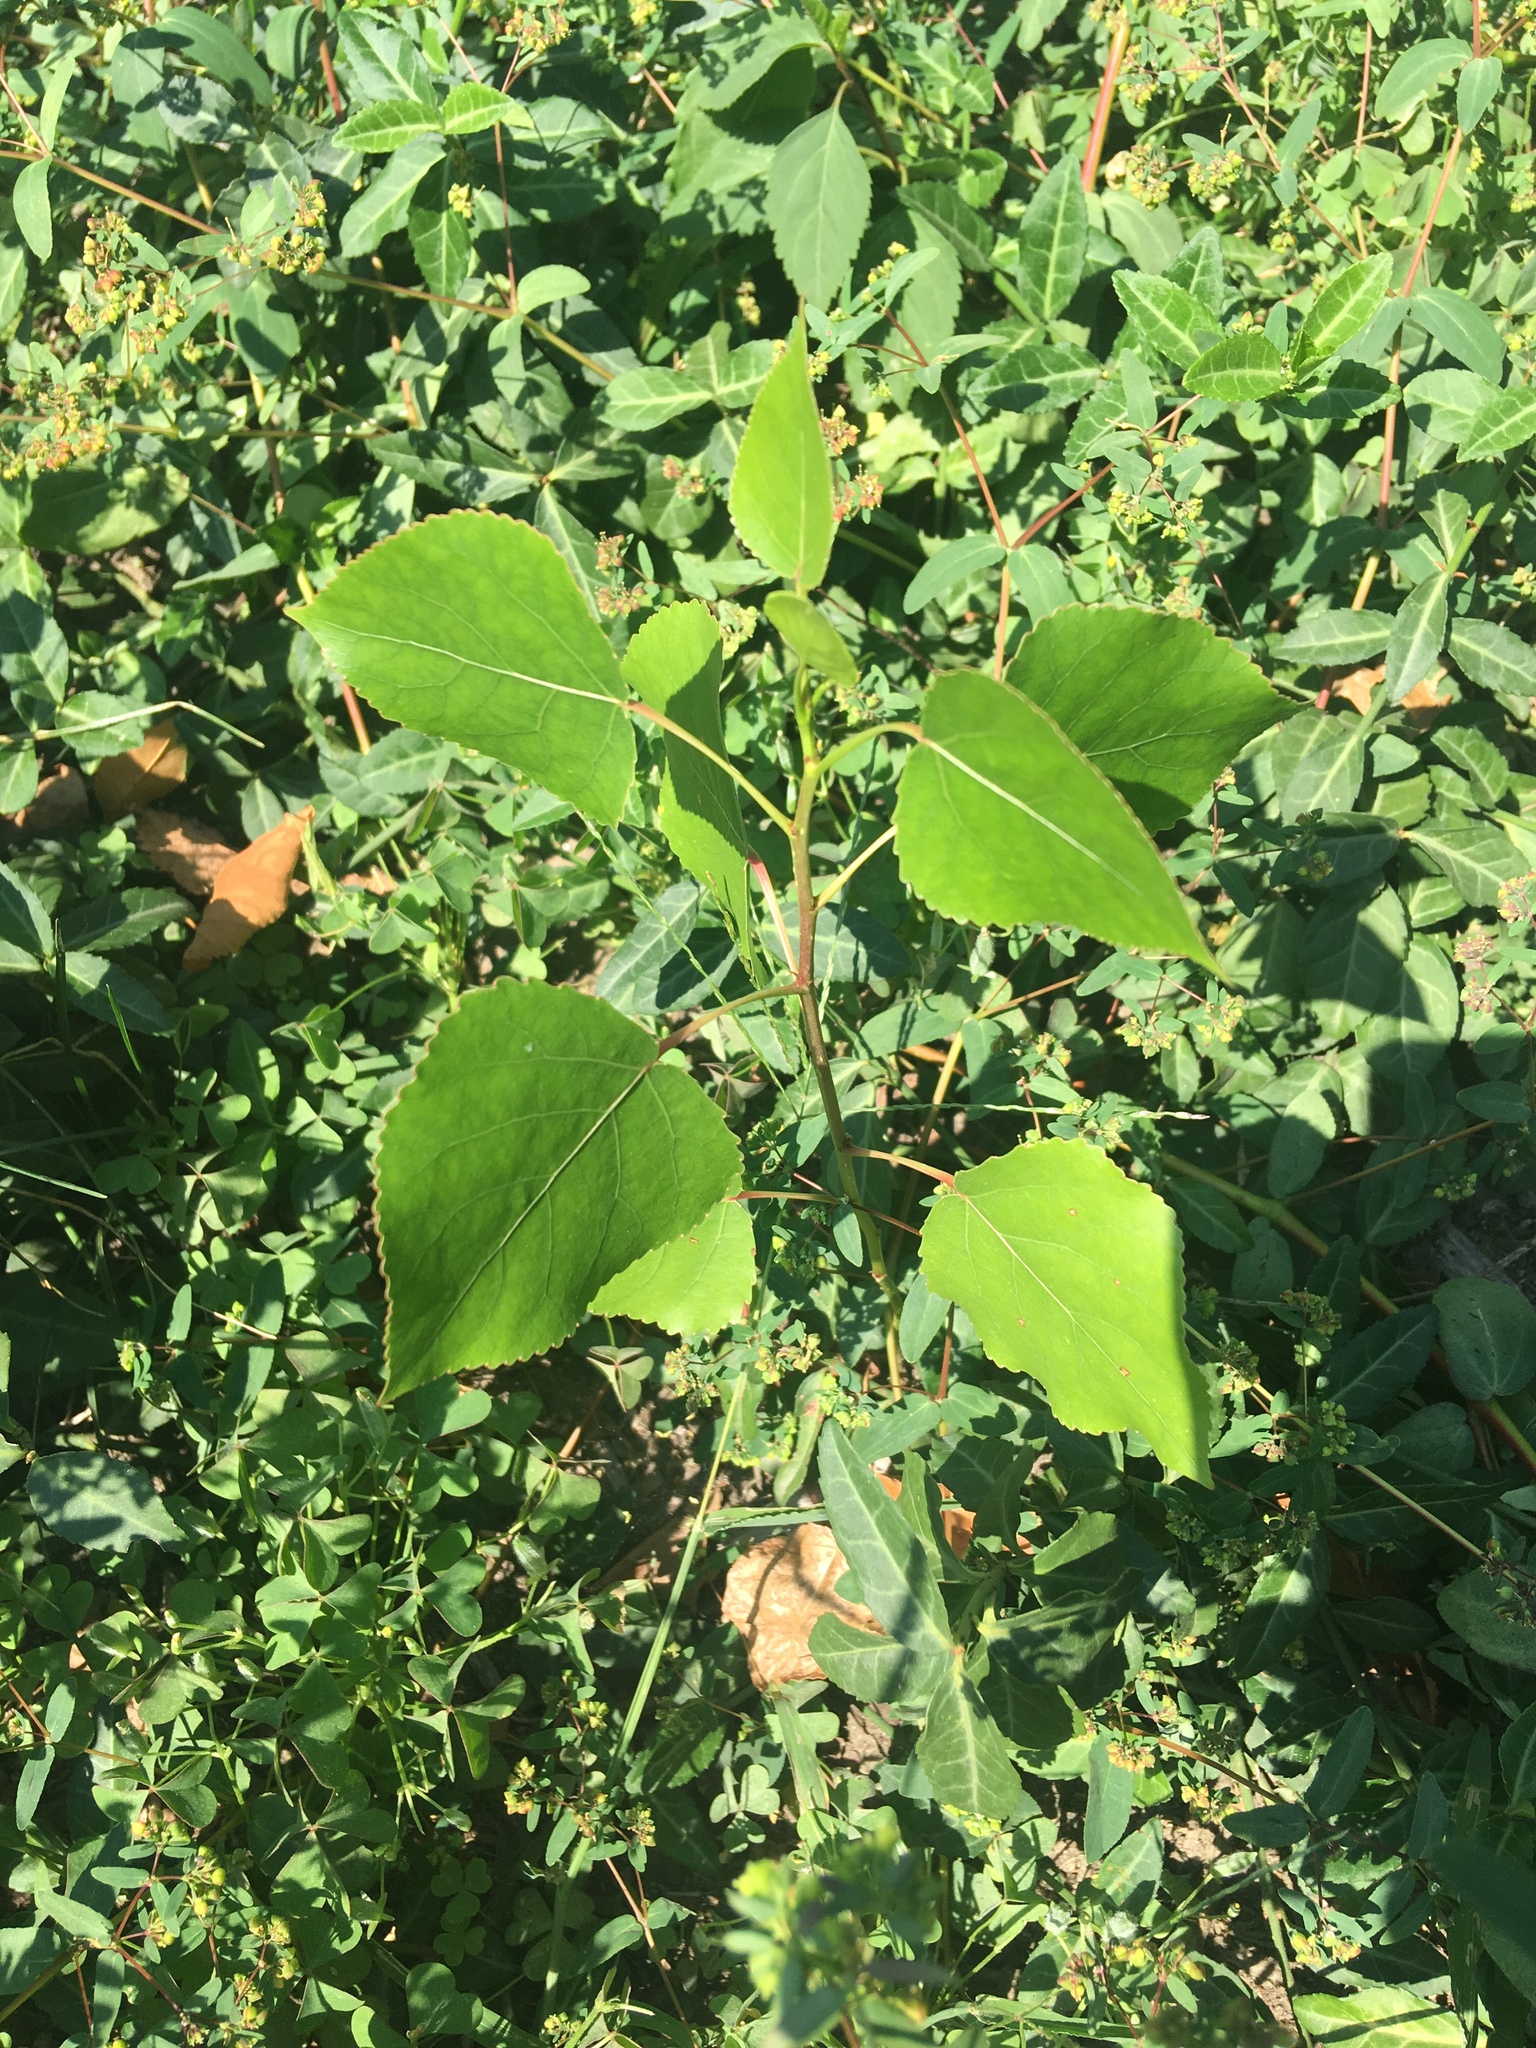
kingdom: Plantae
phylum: Tracheophyta
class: Magnoliopsida
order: Malpighiales
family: Salicaceae
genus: Populus
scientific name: Populus deltoides
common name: Eastern cottonwood
